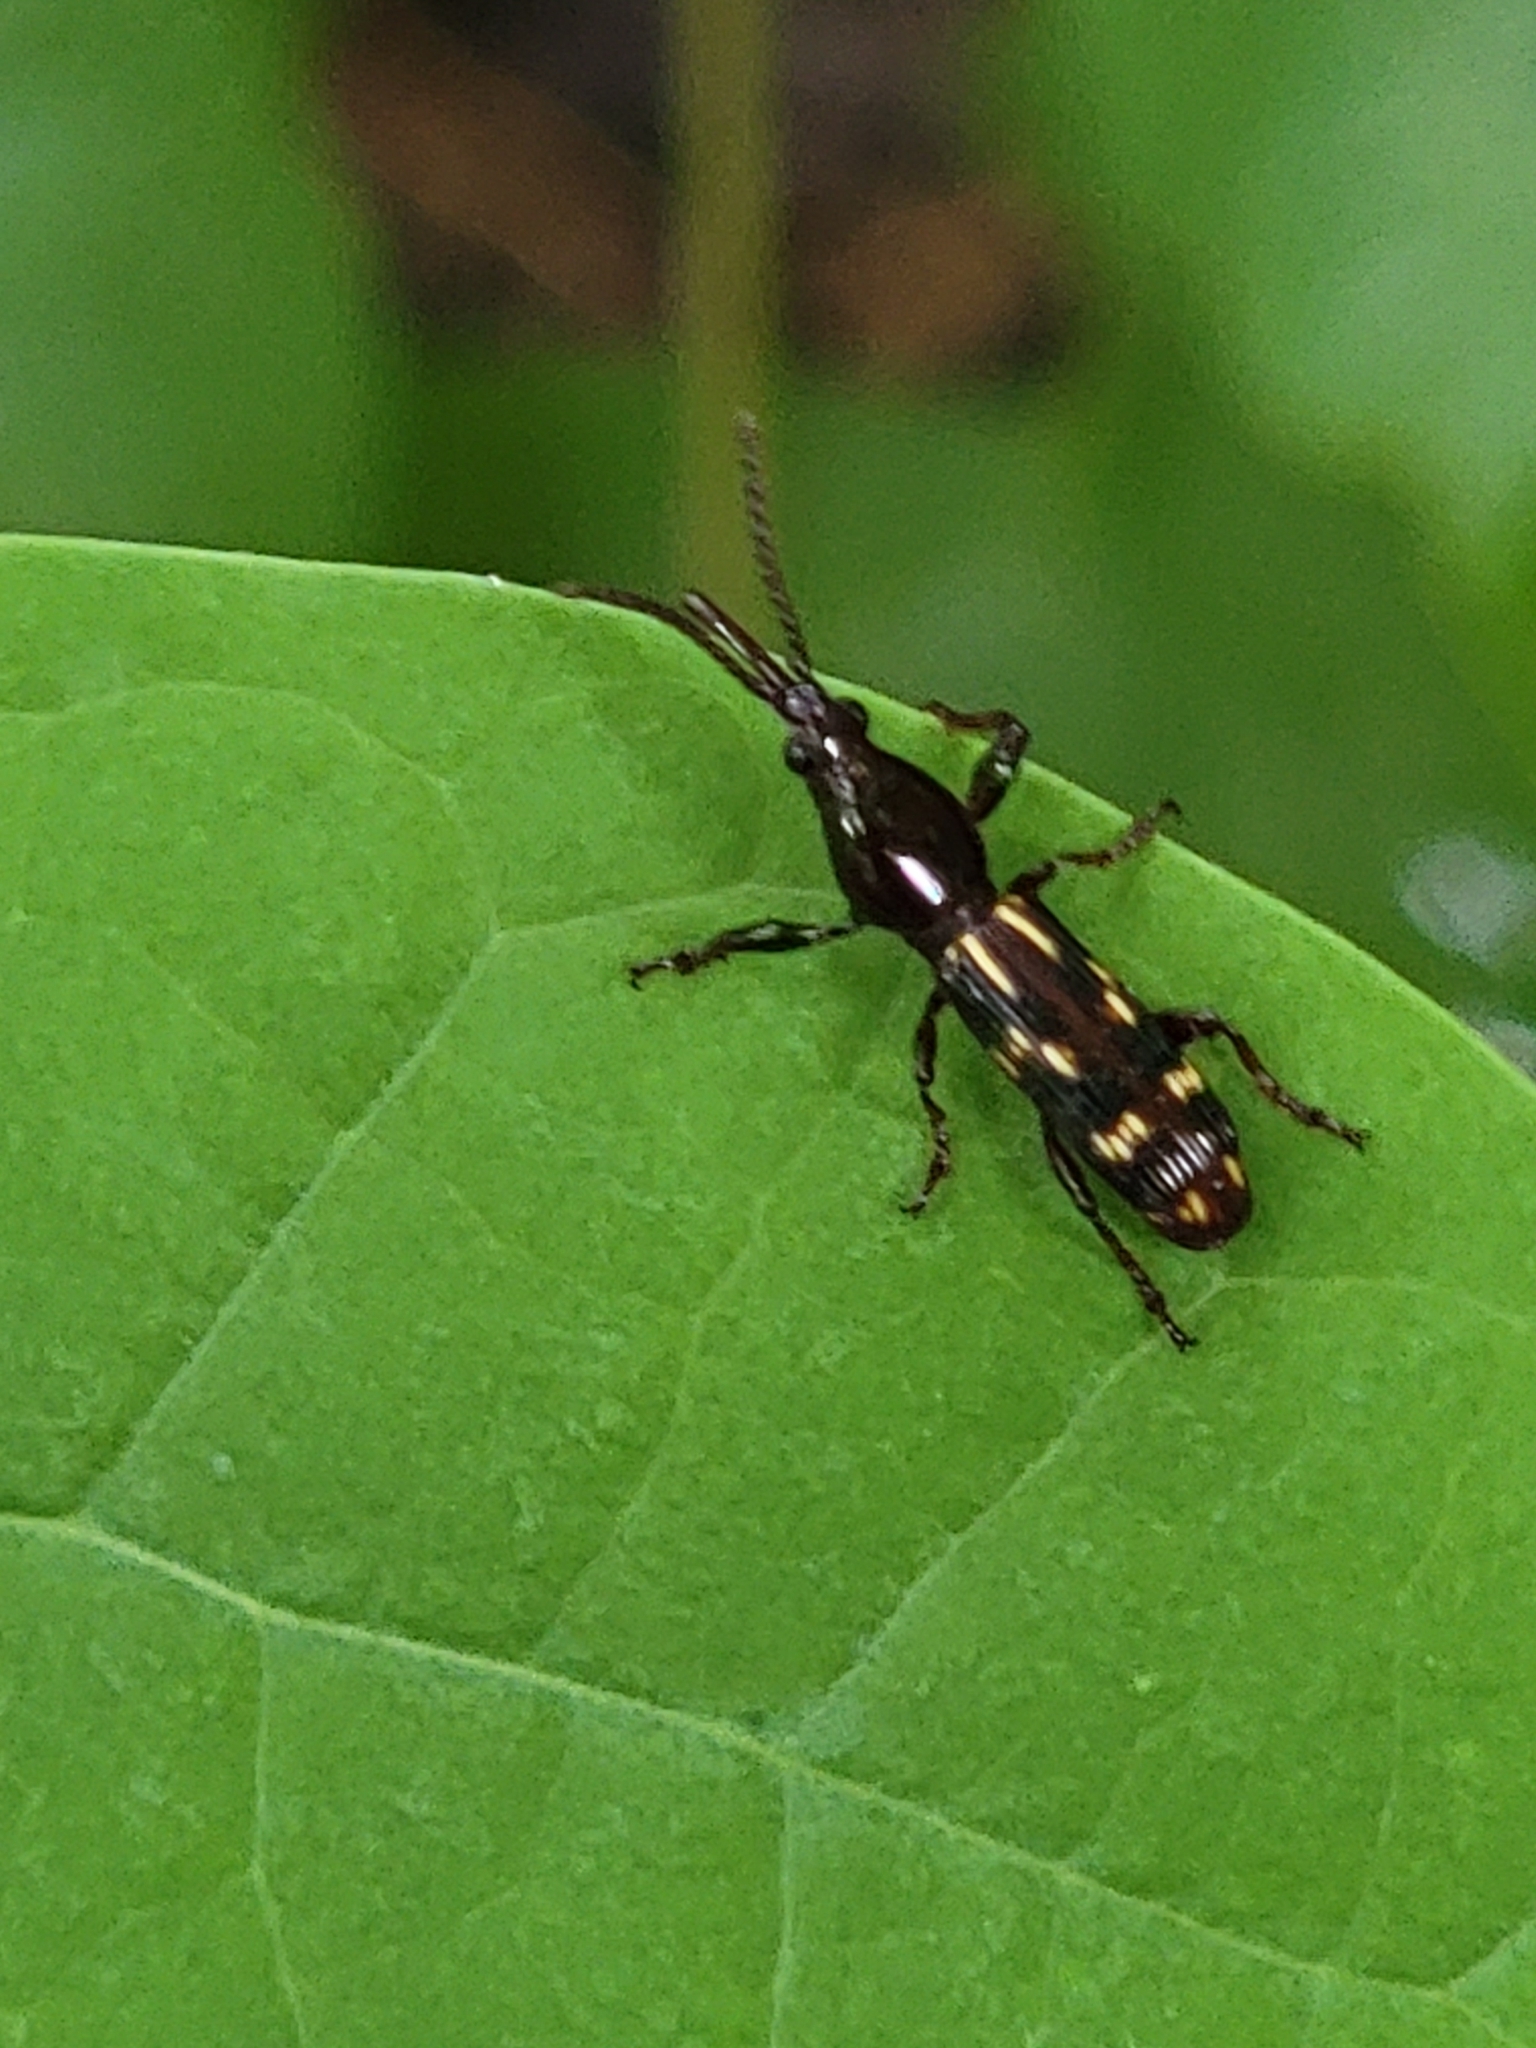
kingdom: Animalia
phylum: Arthropoda
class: Insecta
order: Coleoptera
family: Brentidae
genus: Arrenodes
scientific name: Arrenodes minutus
